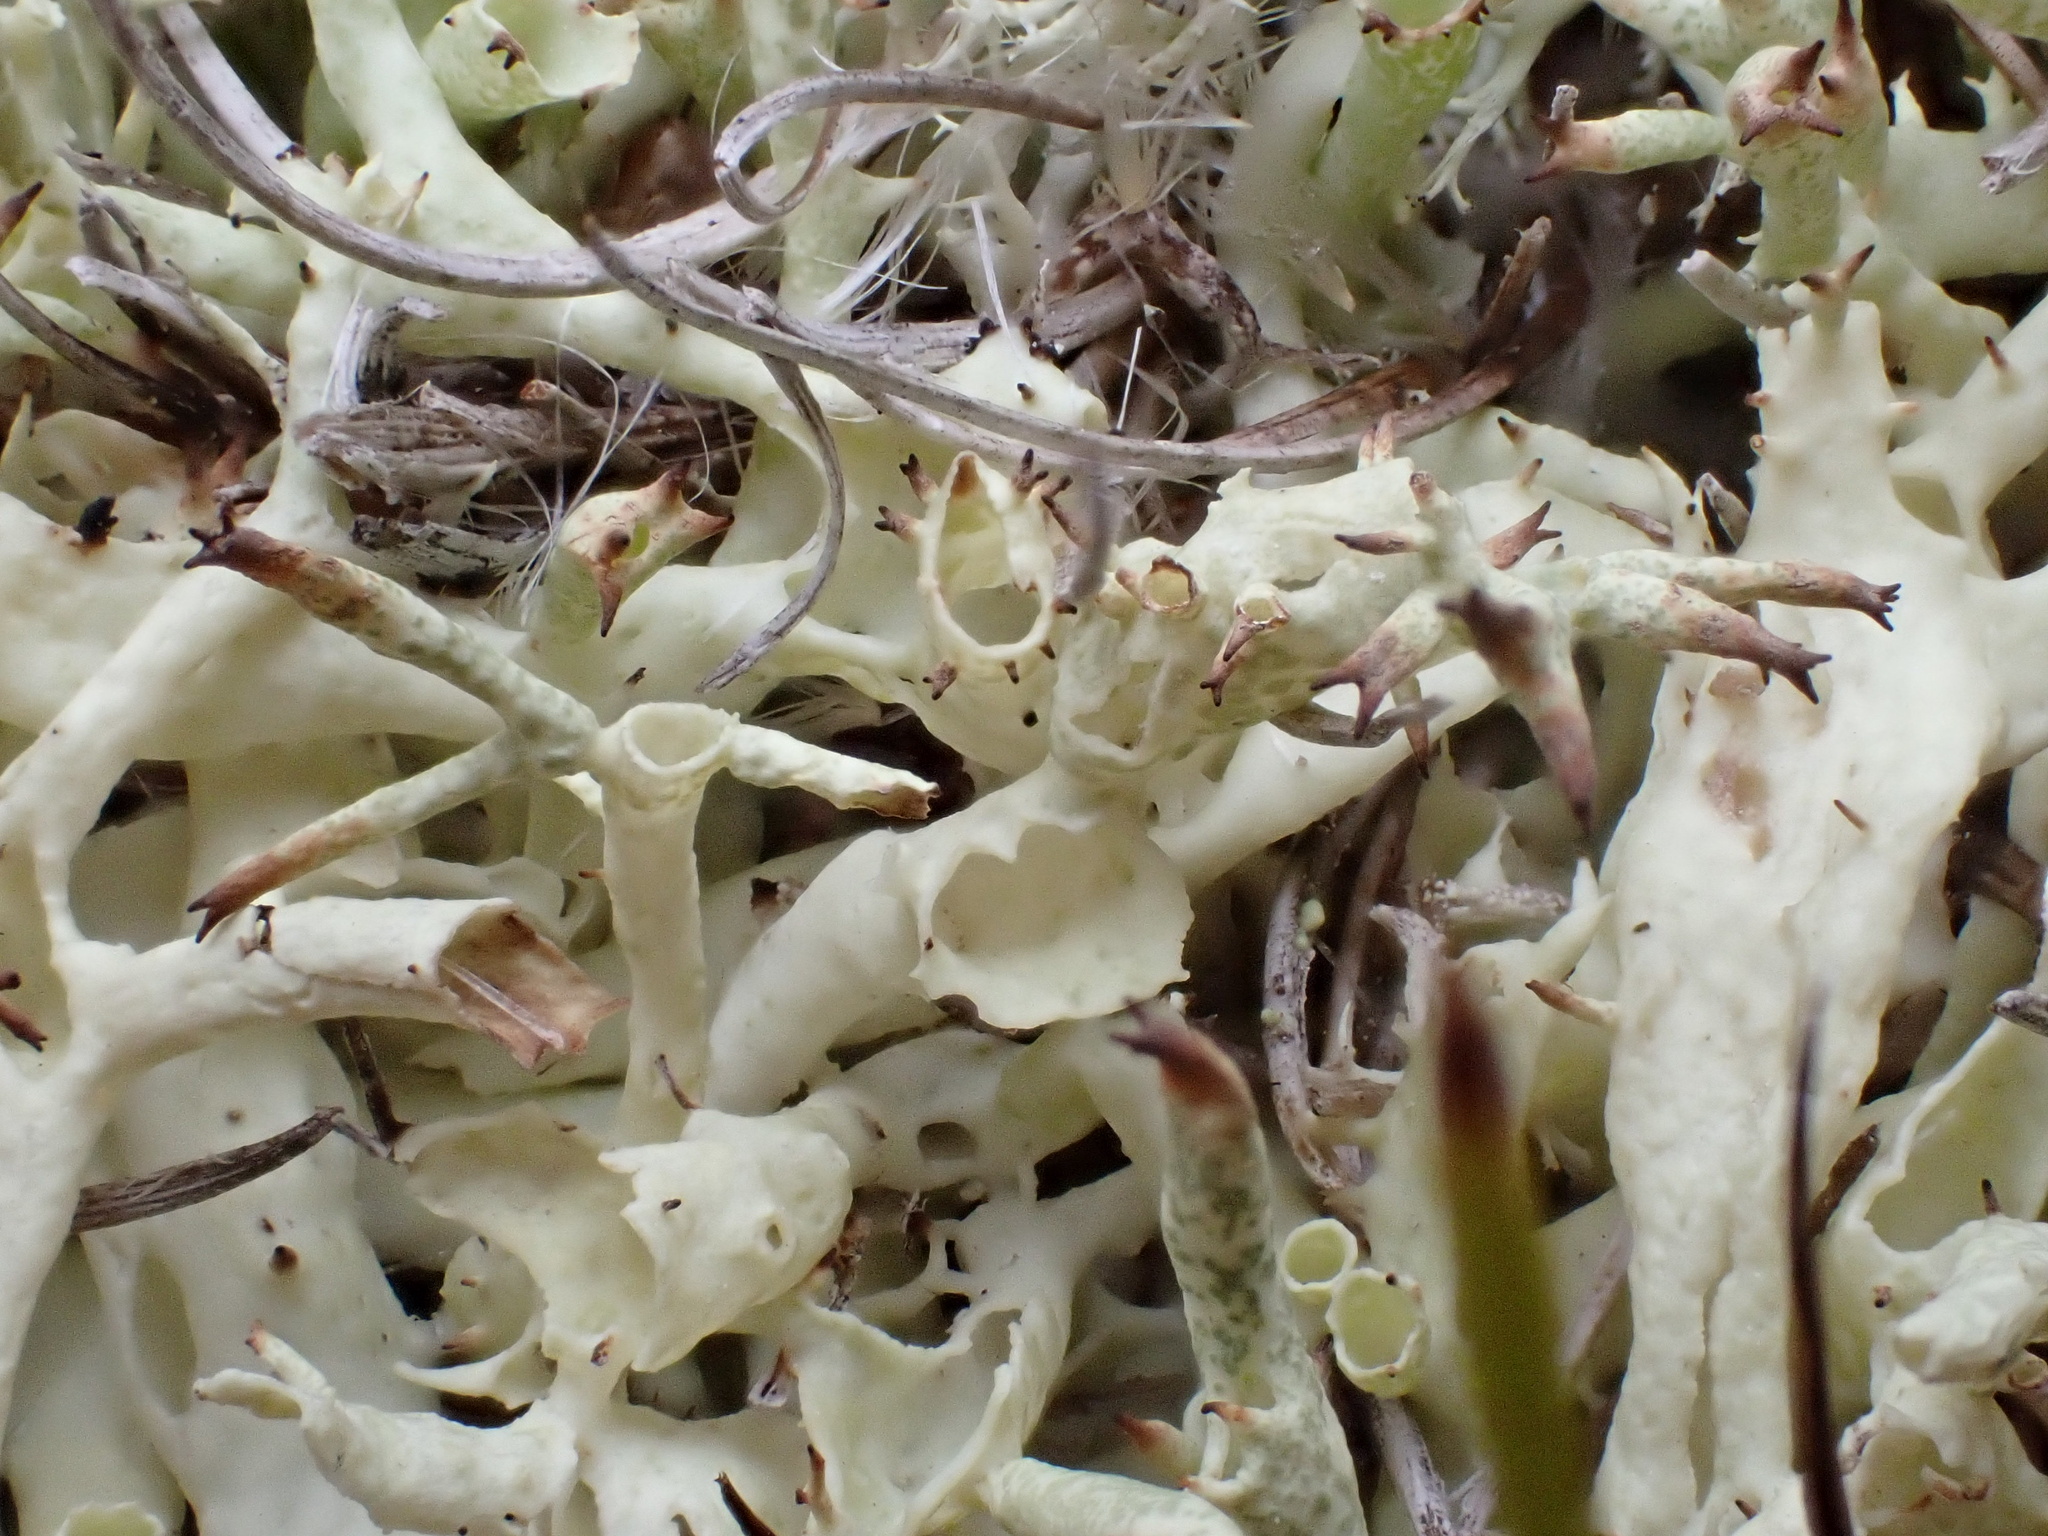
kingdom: Fungi
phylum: Ascomycota
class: Lecanoromycetes
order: Lecanorales
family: Cladoniaceae
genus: Cladonia
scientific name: Cladonia uncialis
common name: Thorn lichen
